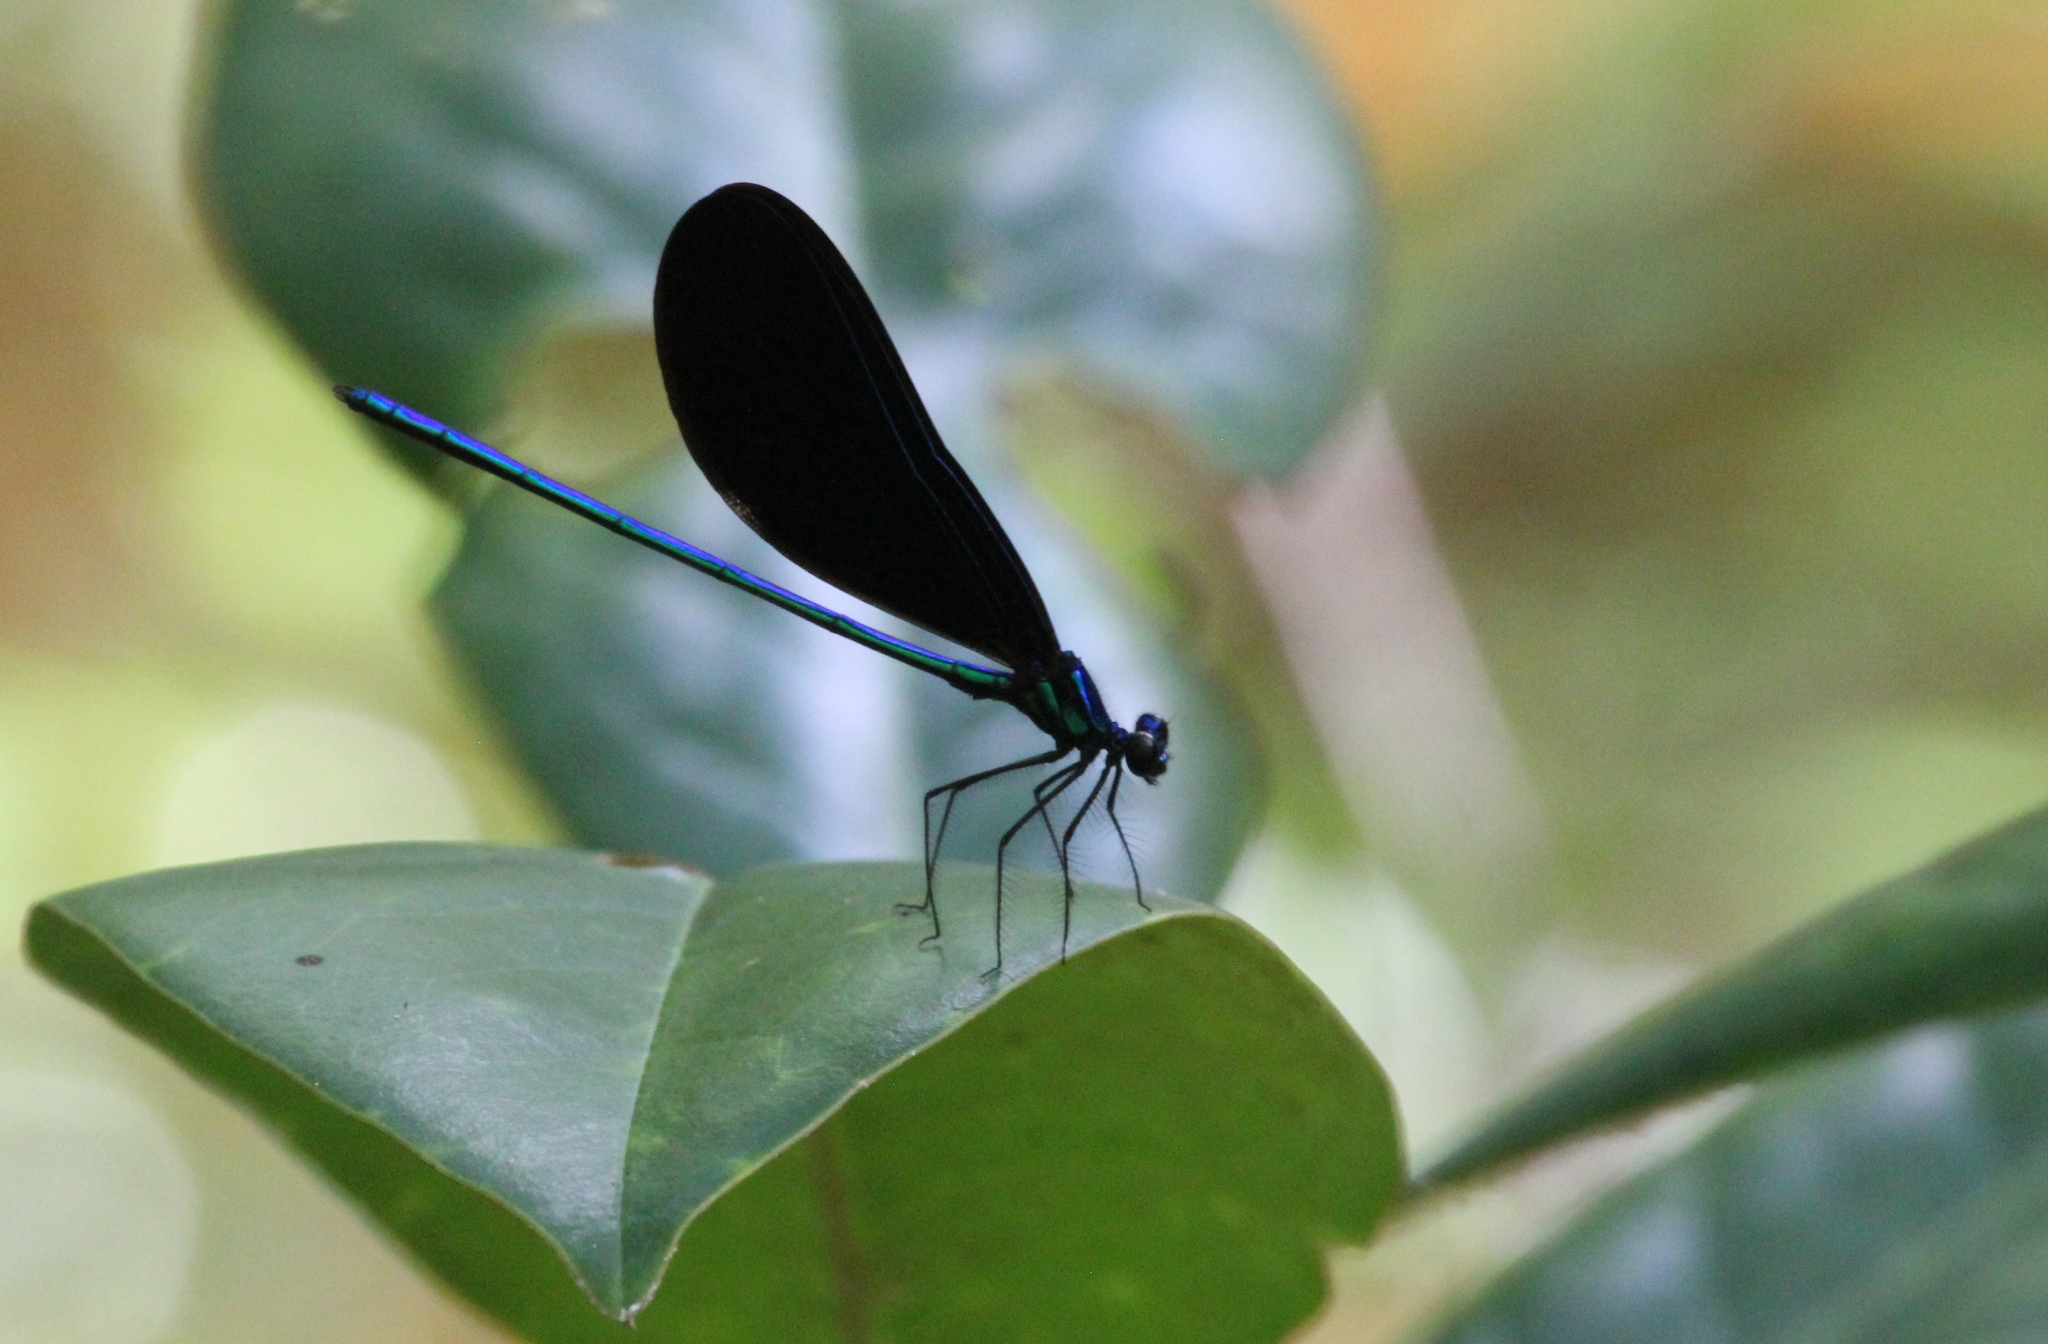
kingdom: Animalia
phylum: Arthropoda
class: Insecta
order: Odonata
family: Calopterygidae
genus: Calopteryx
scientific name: Calopteryx maculata
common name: Ebony jewelwing
